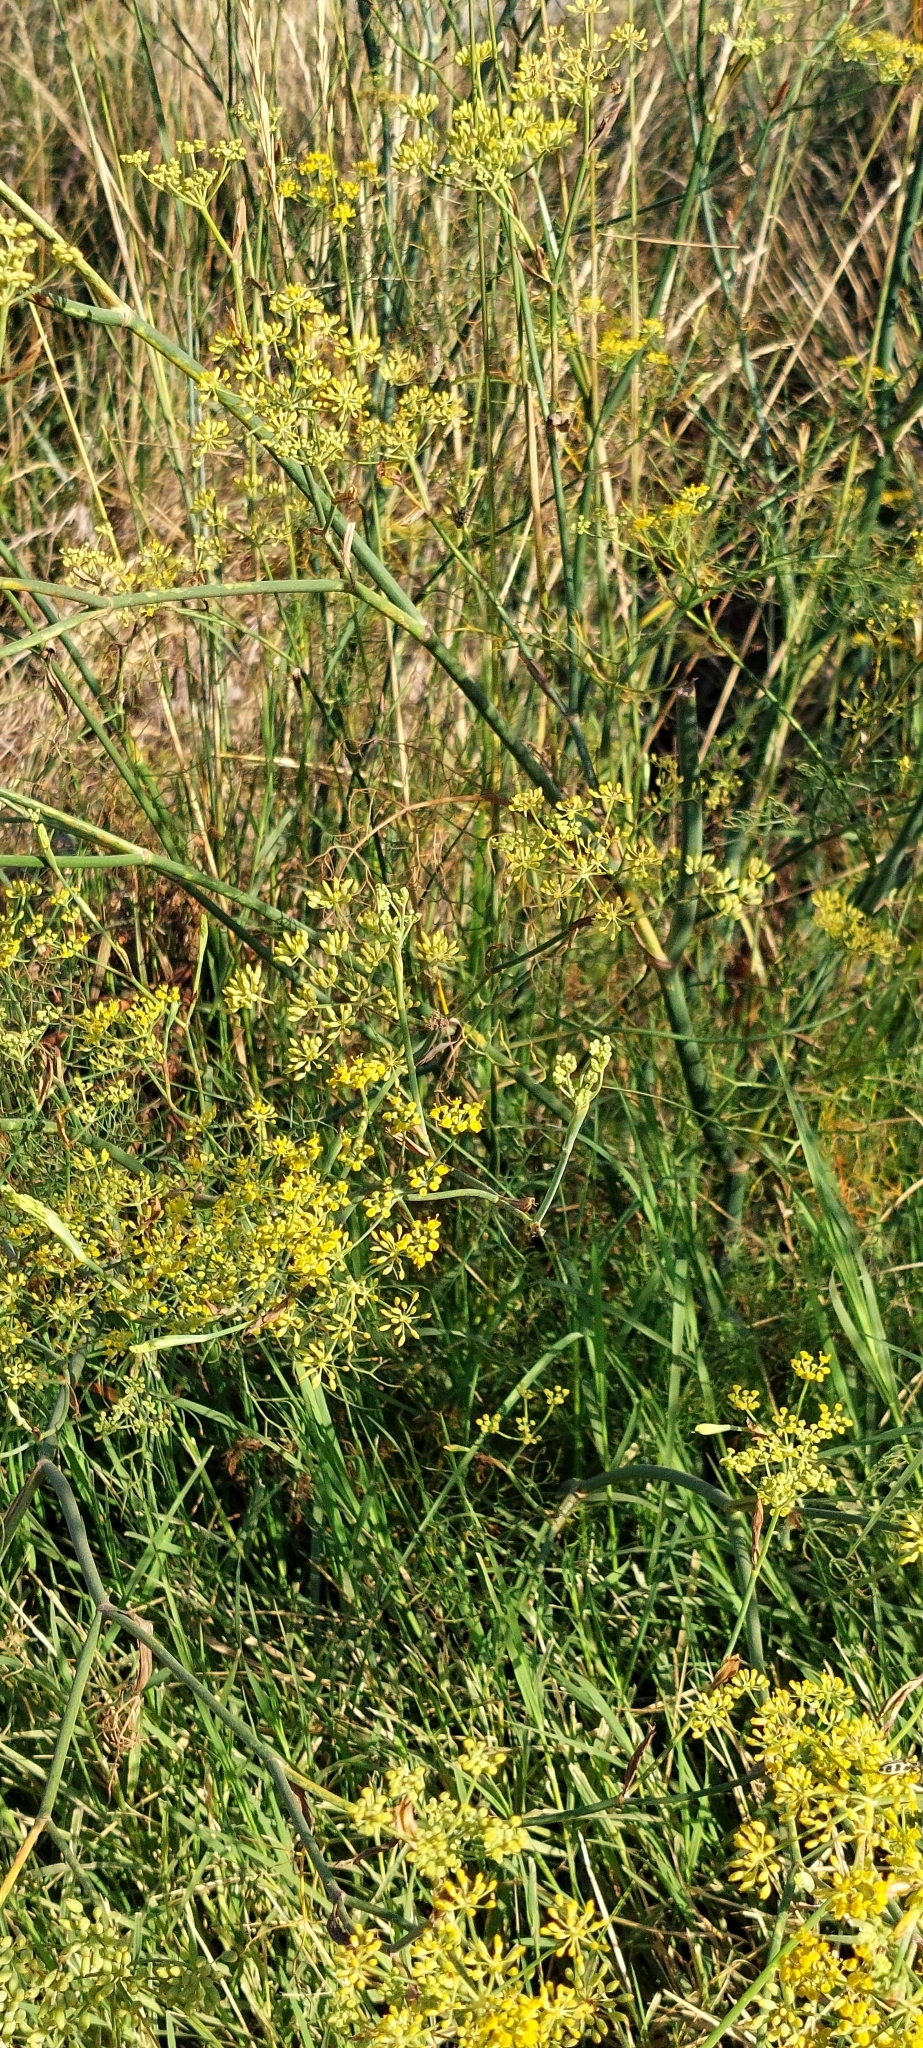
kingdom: Plantae
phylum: Tracheophyta
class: Magnoliopsida
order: Apiales
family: Apiaceae
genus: Foeniculum
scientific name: Foeniculum vulgare
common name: Fennel
